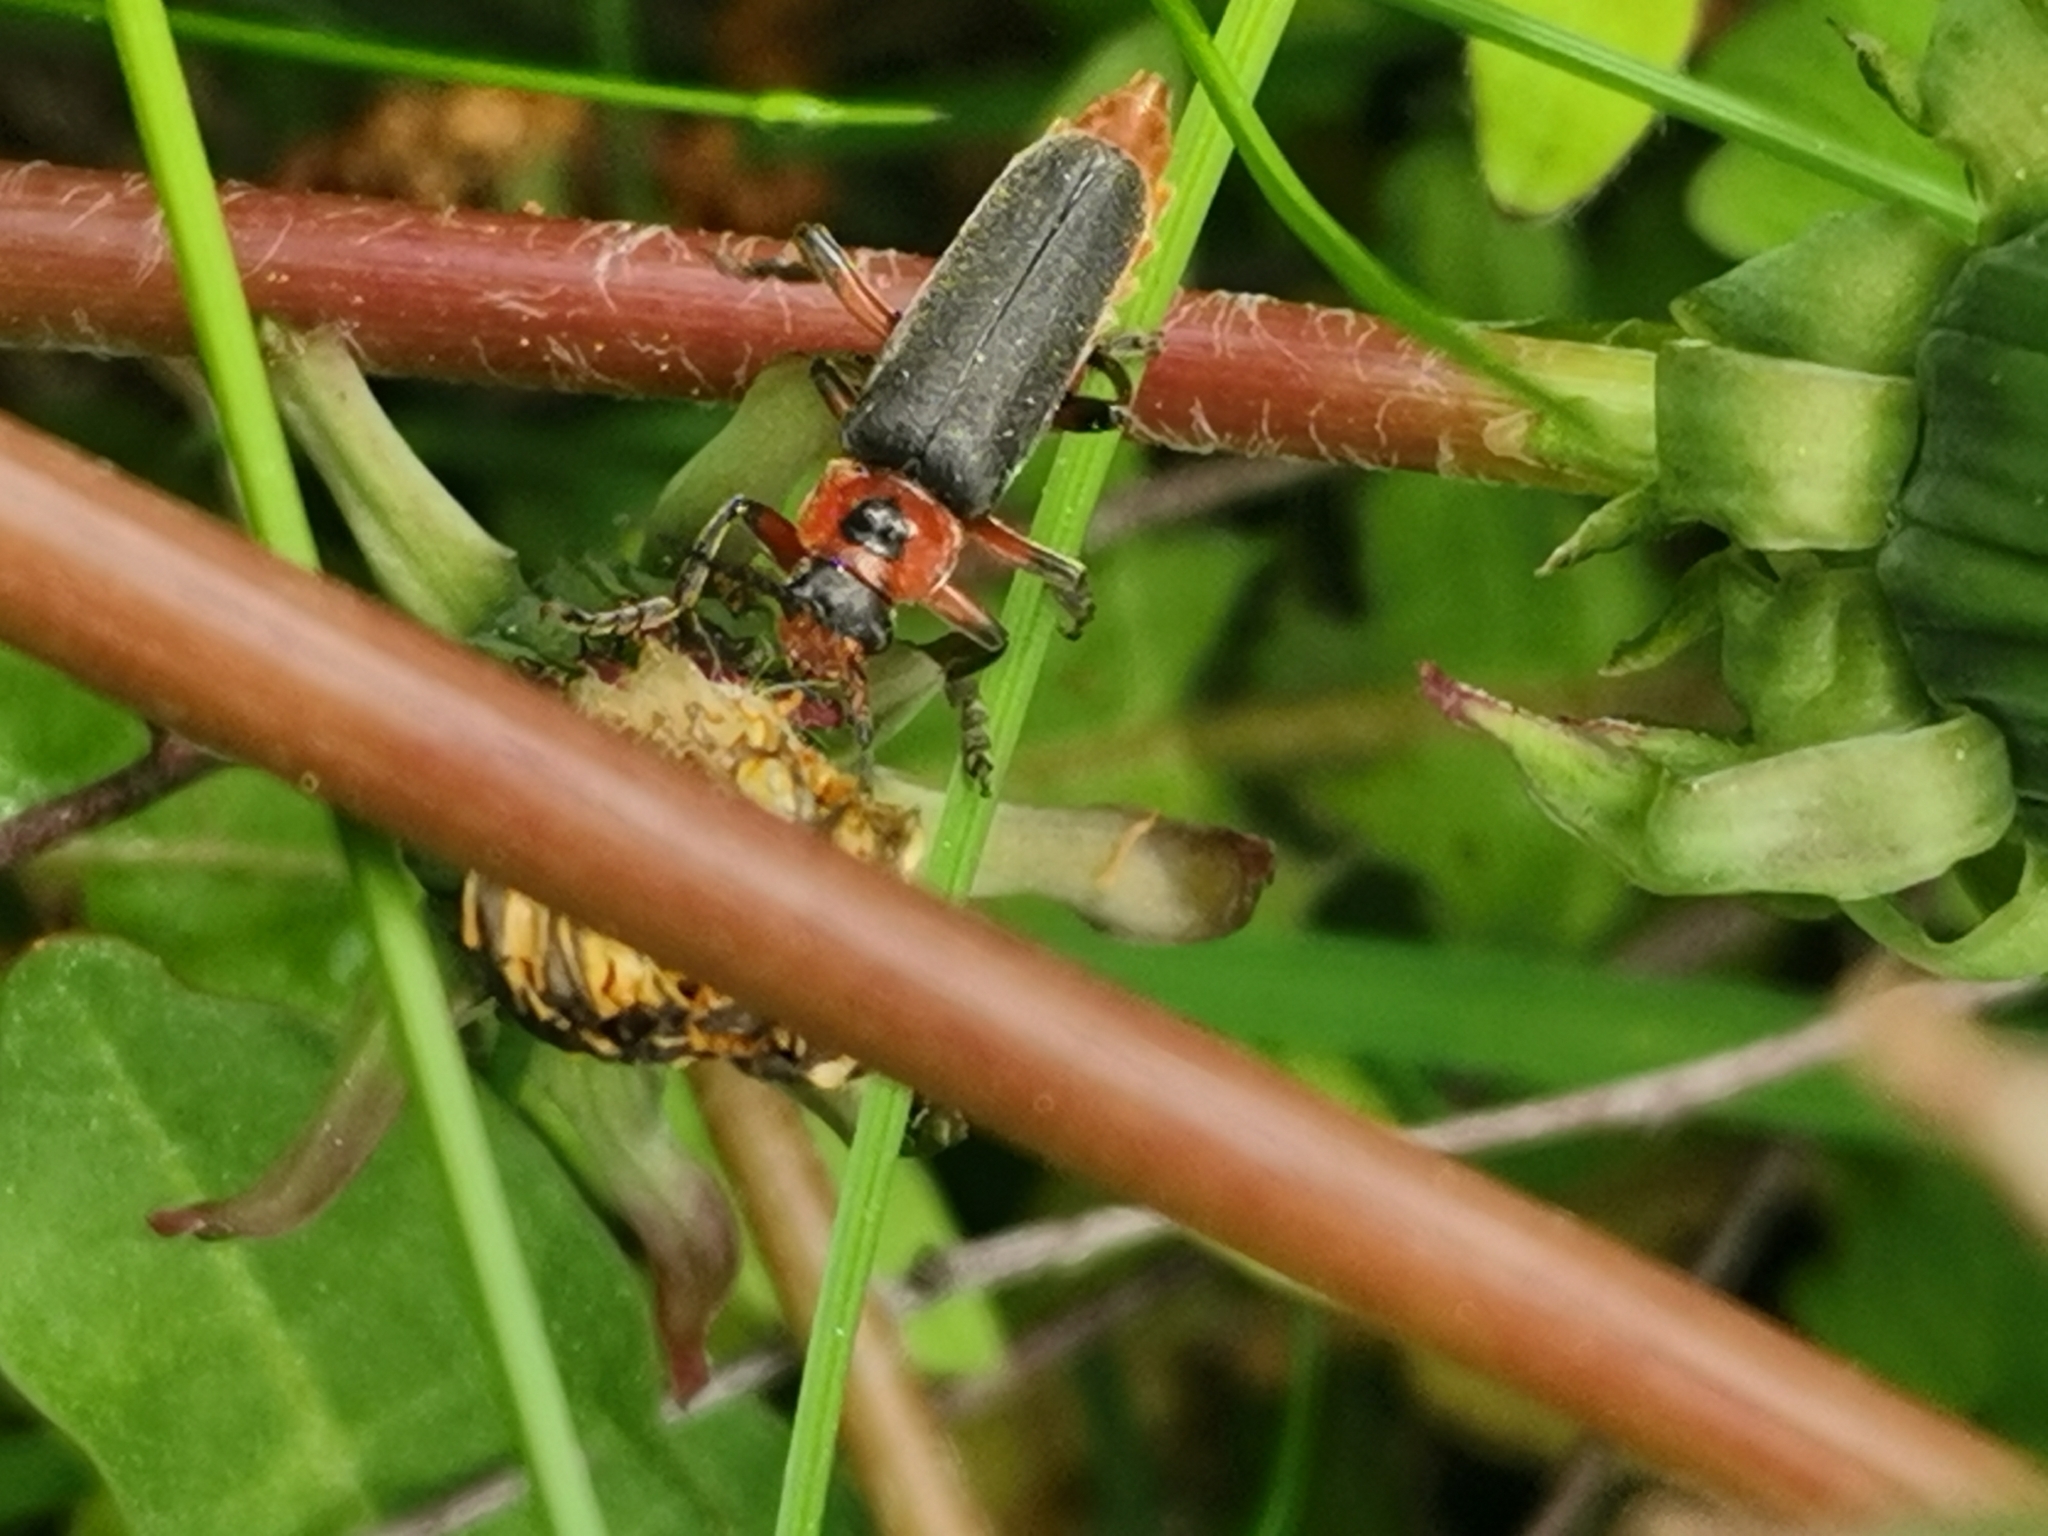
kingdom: Animalia
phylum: Arthropoda
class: Insecta
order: Coleoptera
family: Cantharidae
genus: Cantharis
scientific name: Cantharis rustica
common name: Soldier beetle
